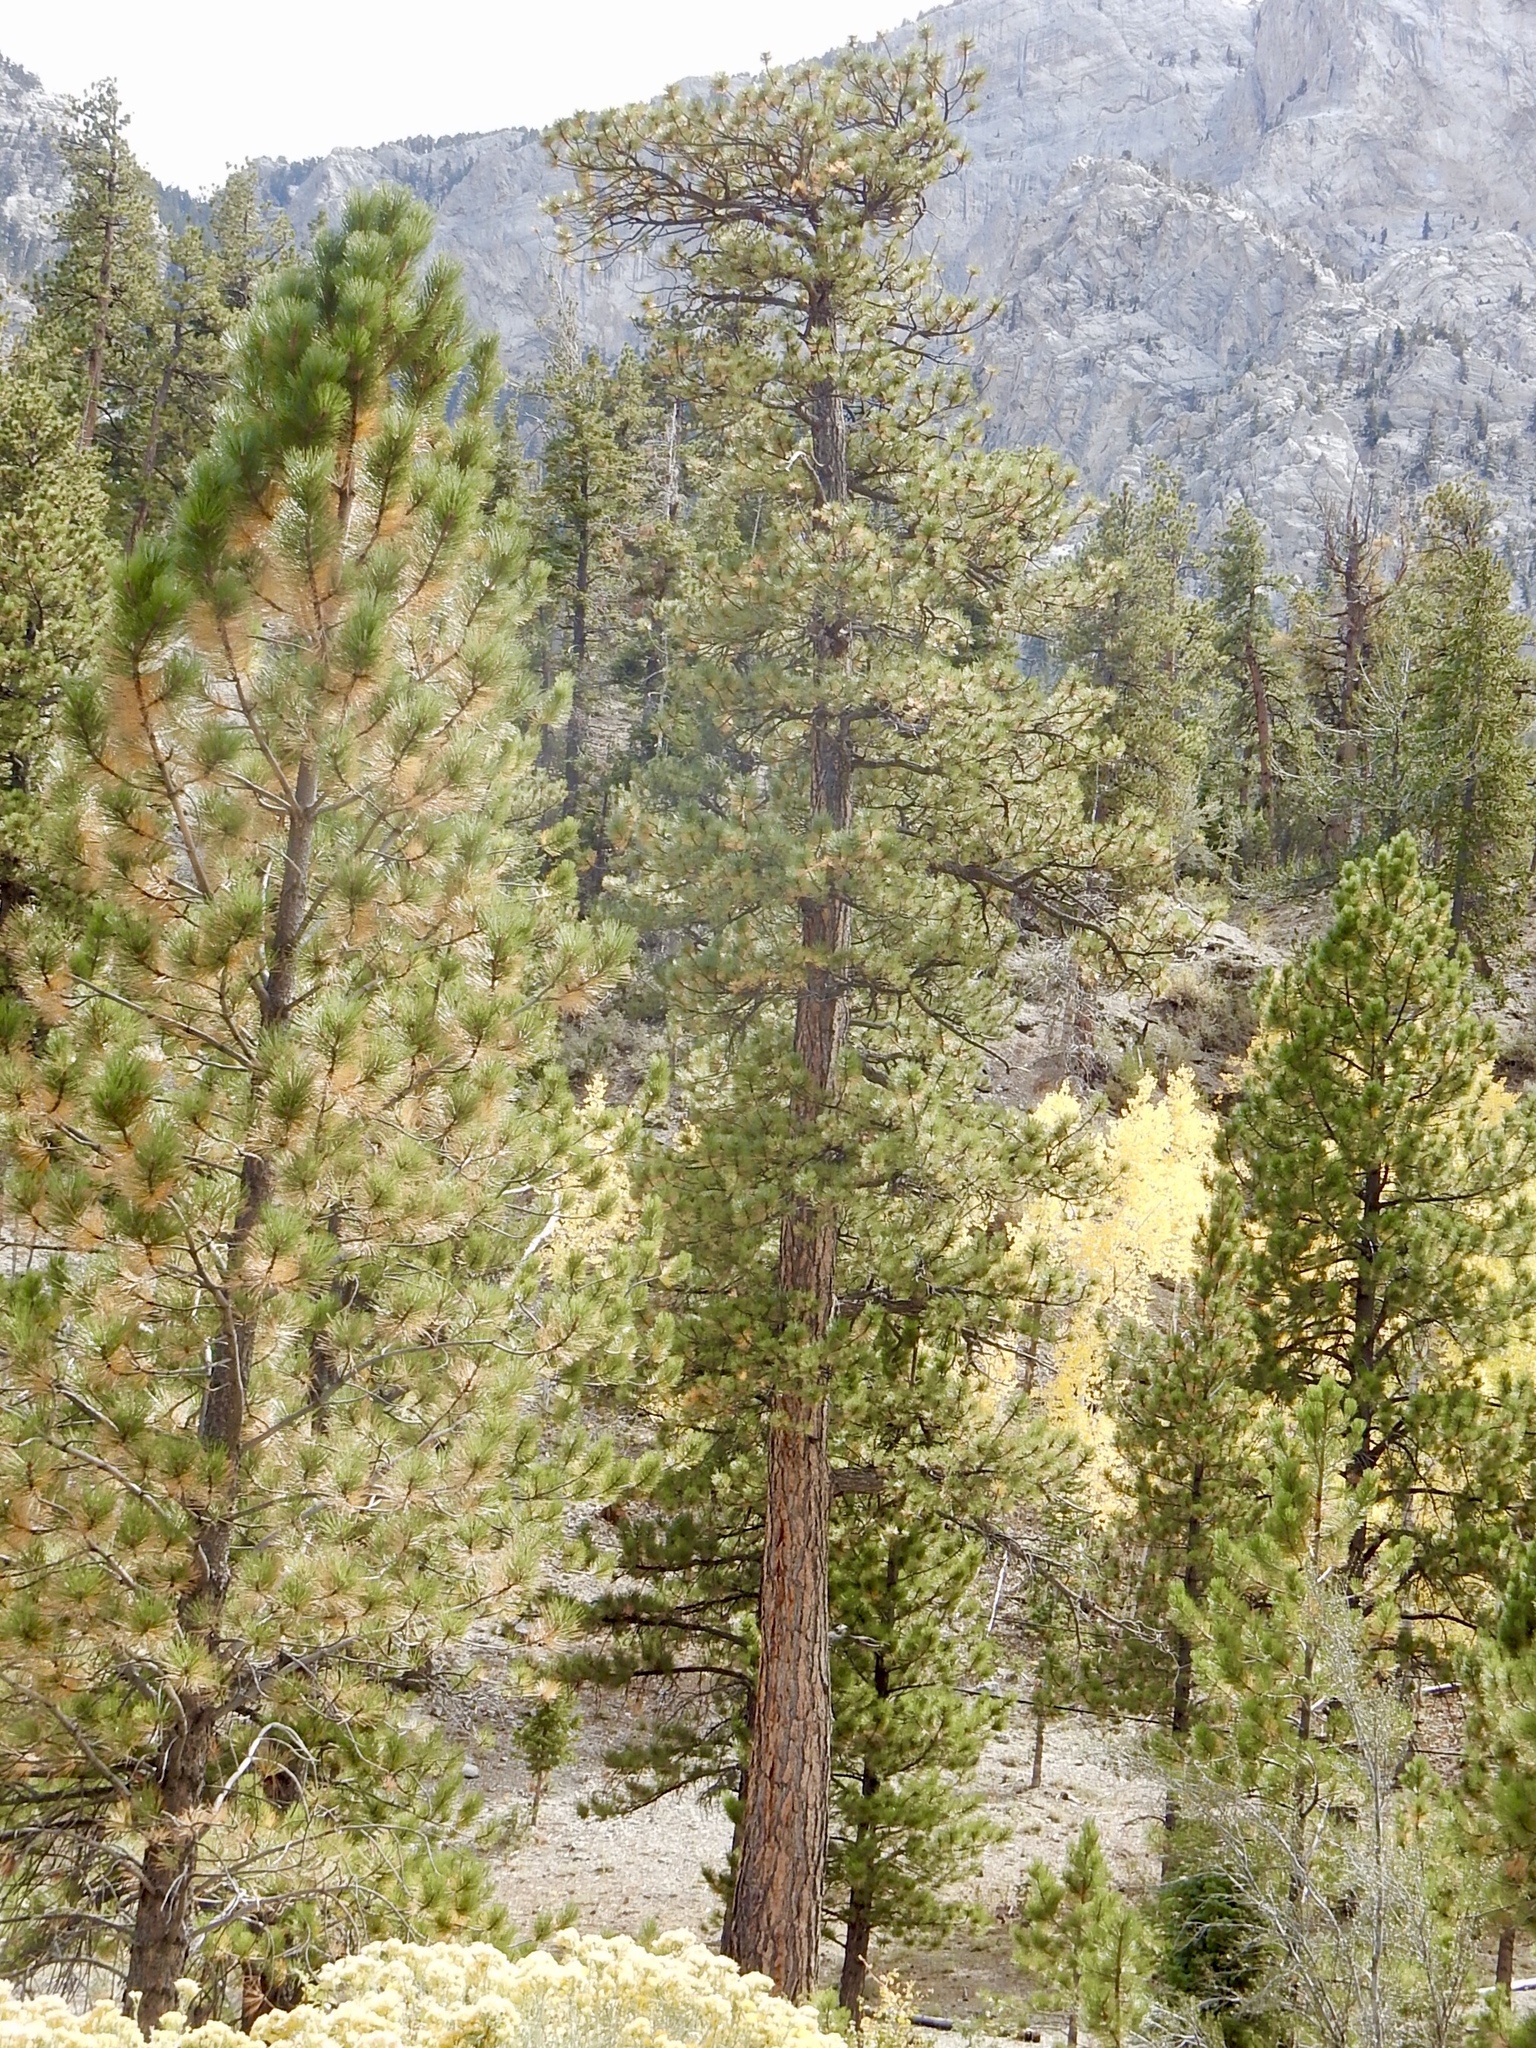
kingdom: Plantae
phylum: Tracheophyta
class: Pinopsida
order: Pinales
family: Pinaceae
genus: Pinus
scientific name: Pinus ponderosa
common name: Western yellow-pine
